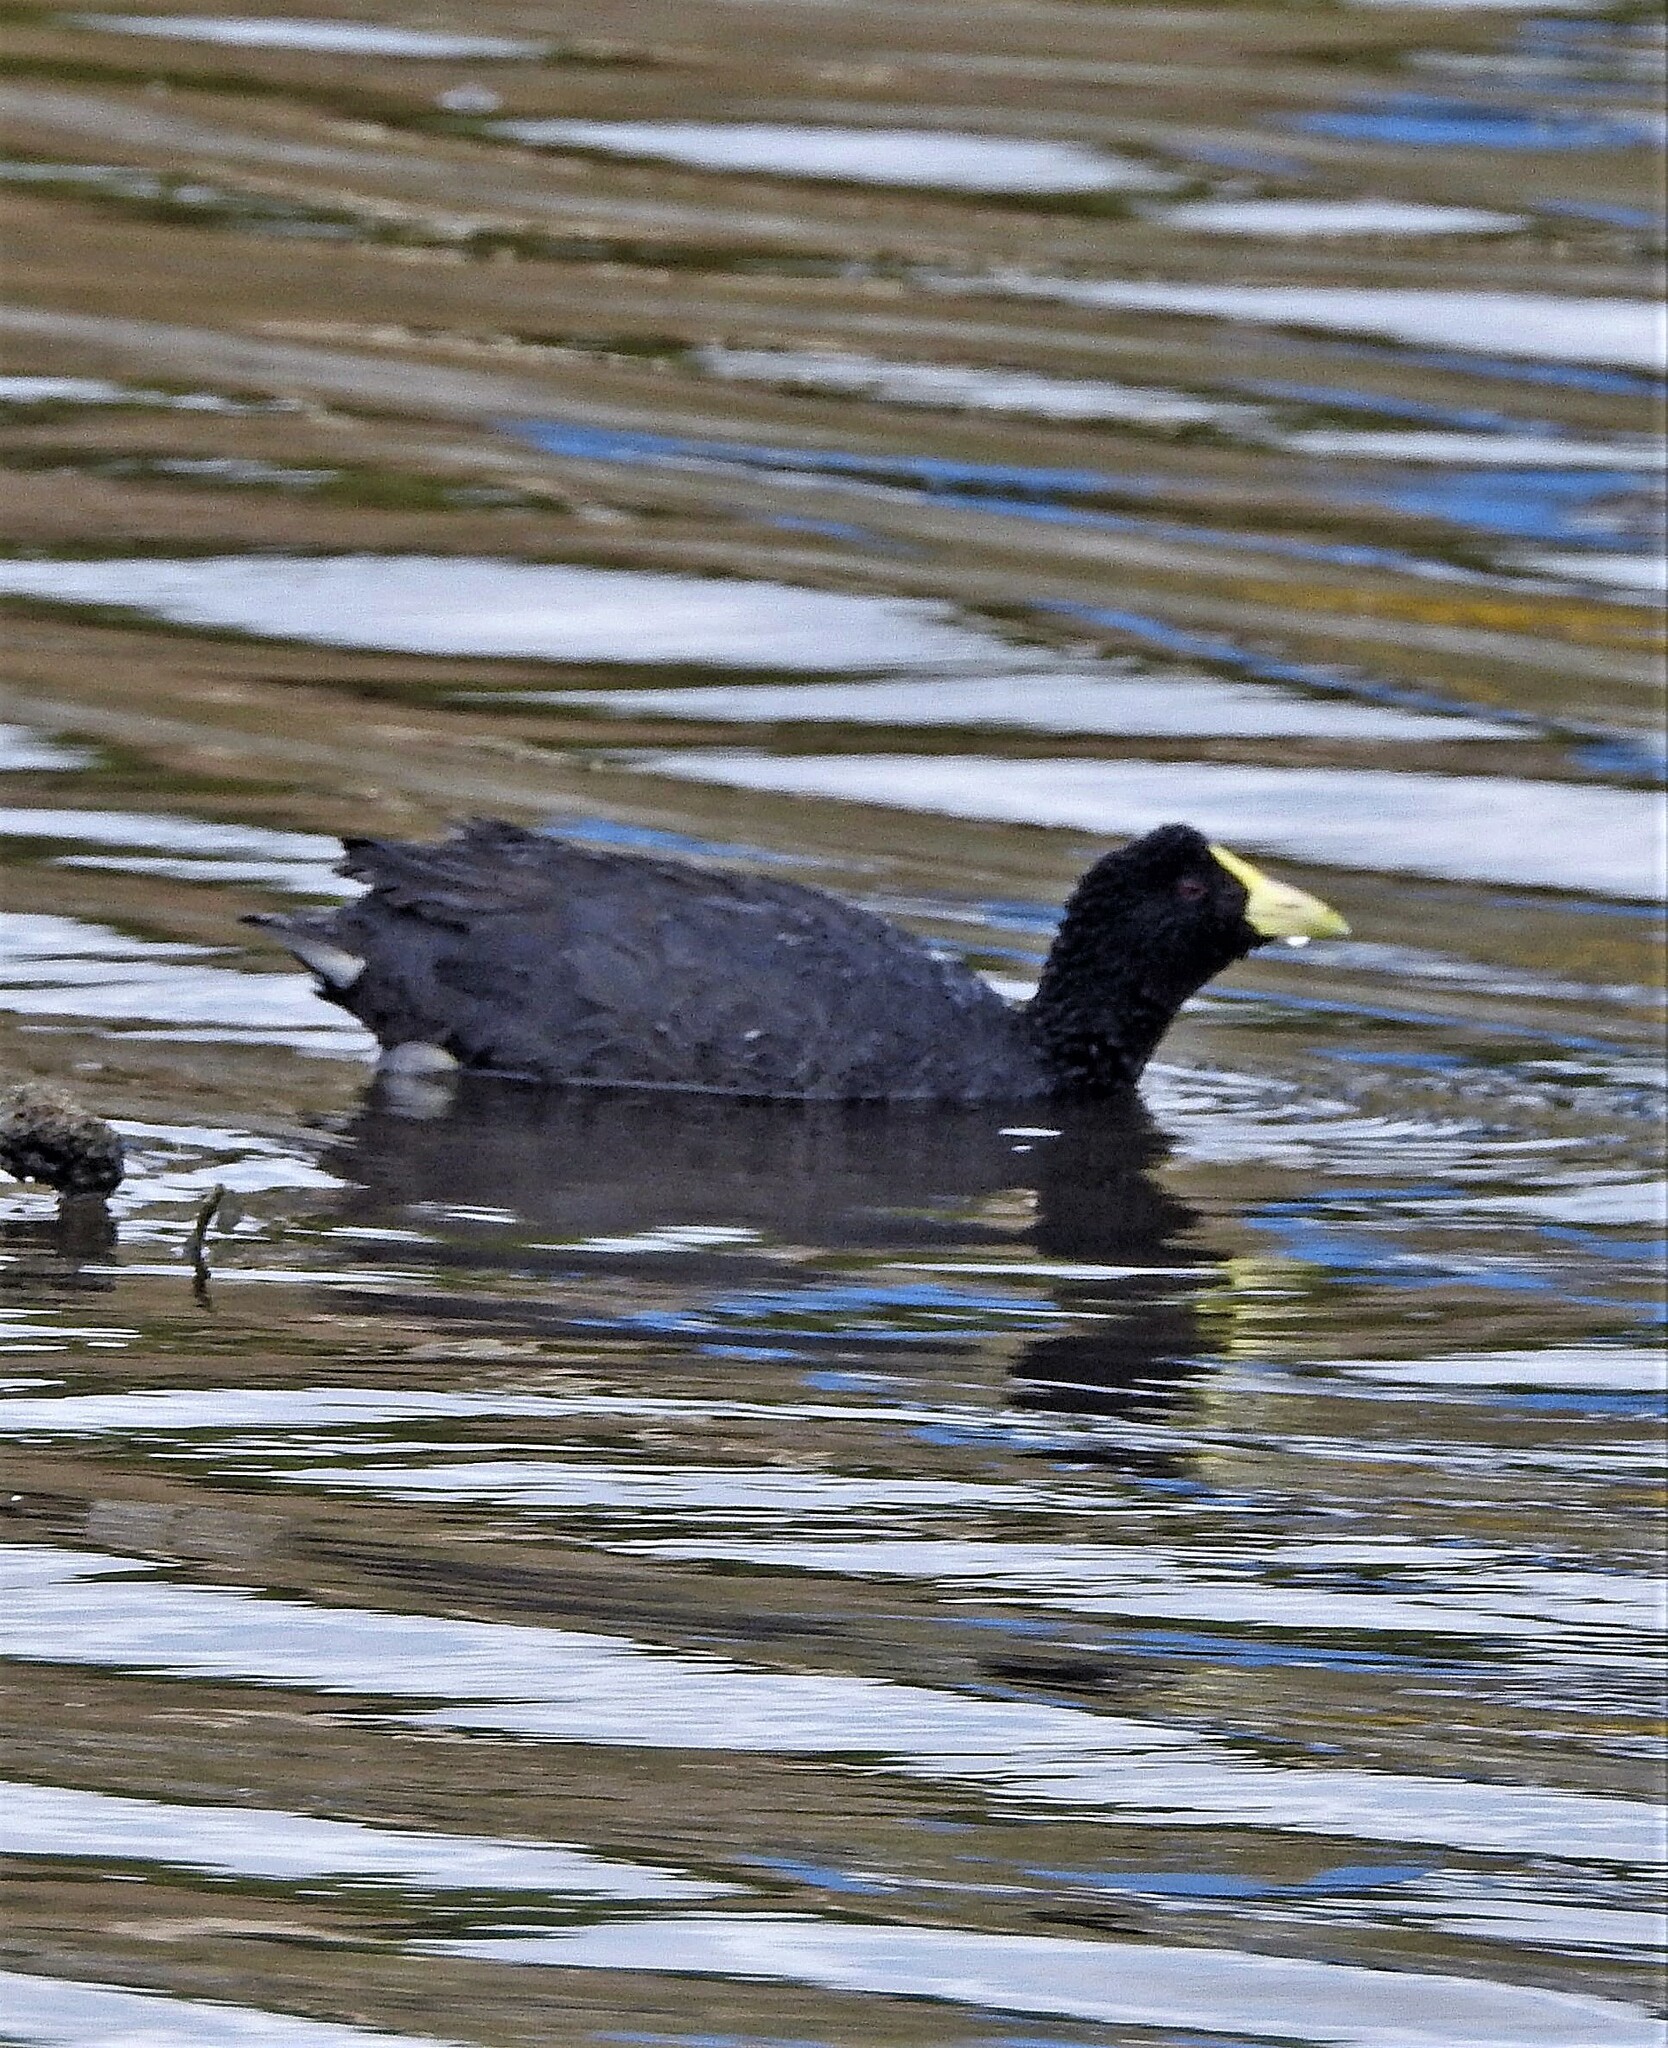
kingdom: Animalia
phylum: Chordata
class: Aves
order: Gruiformes
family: Rallidae
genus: Fulica
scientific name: Fulica leucoptera
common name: White-winged coot
